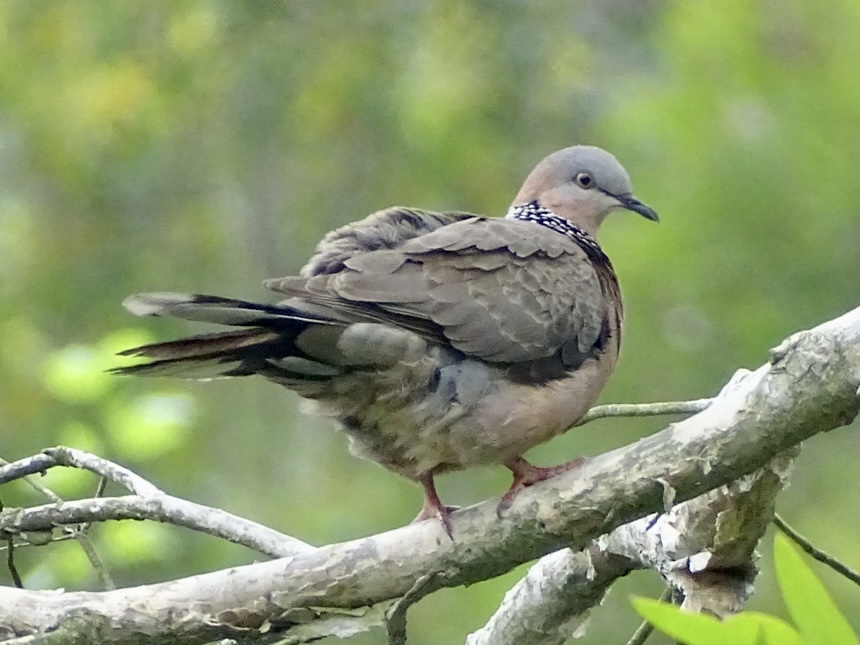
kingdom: Animalia
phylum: Chordata
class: Aves
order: Columbiformes
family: Columbidae
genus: Spilopelia
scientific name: Spilopelia chinensis
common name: Spotted dove
